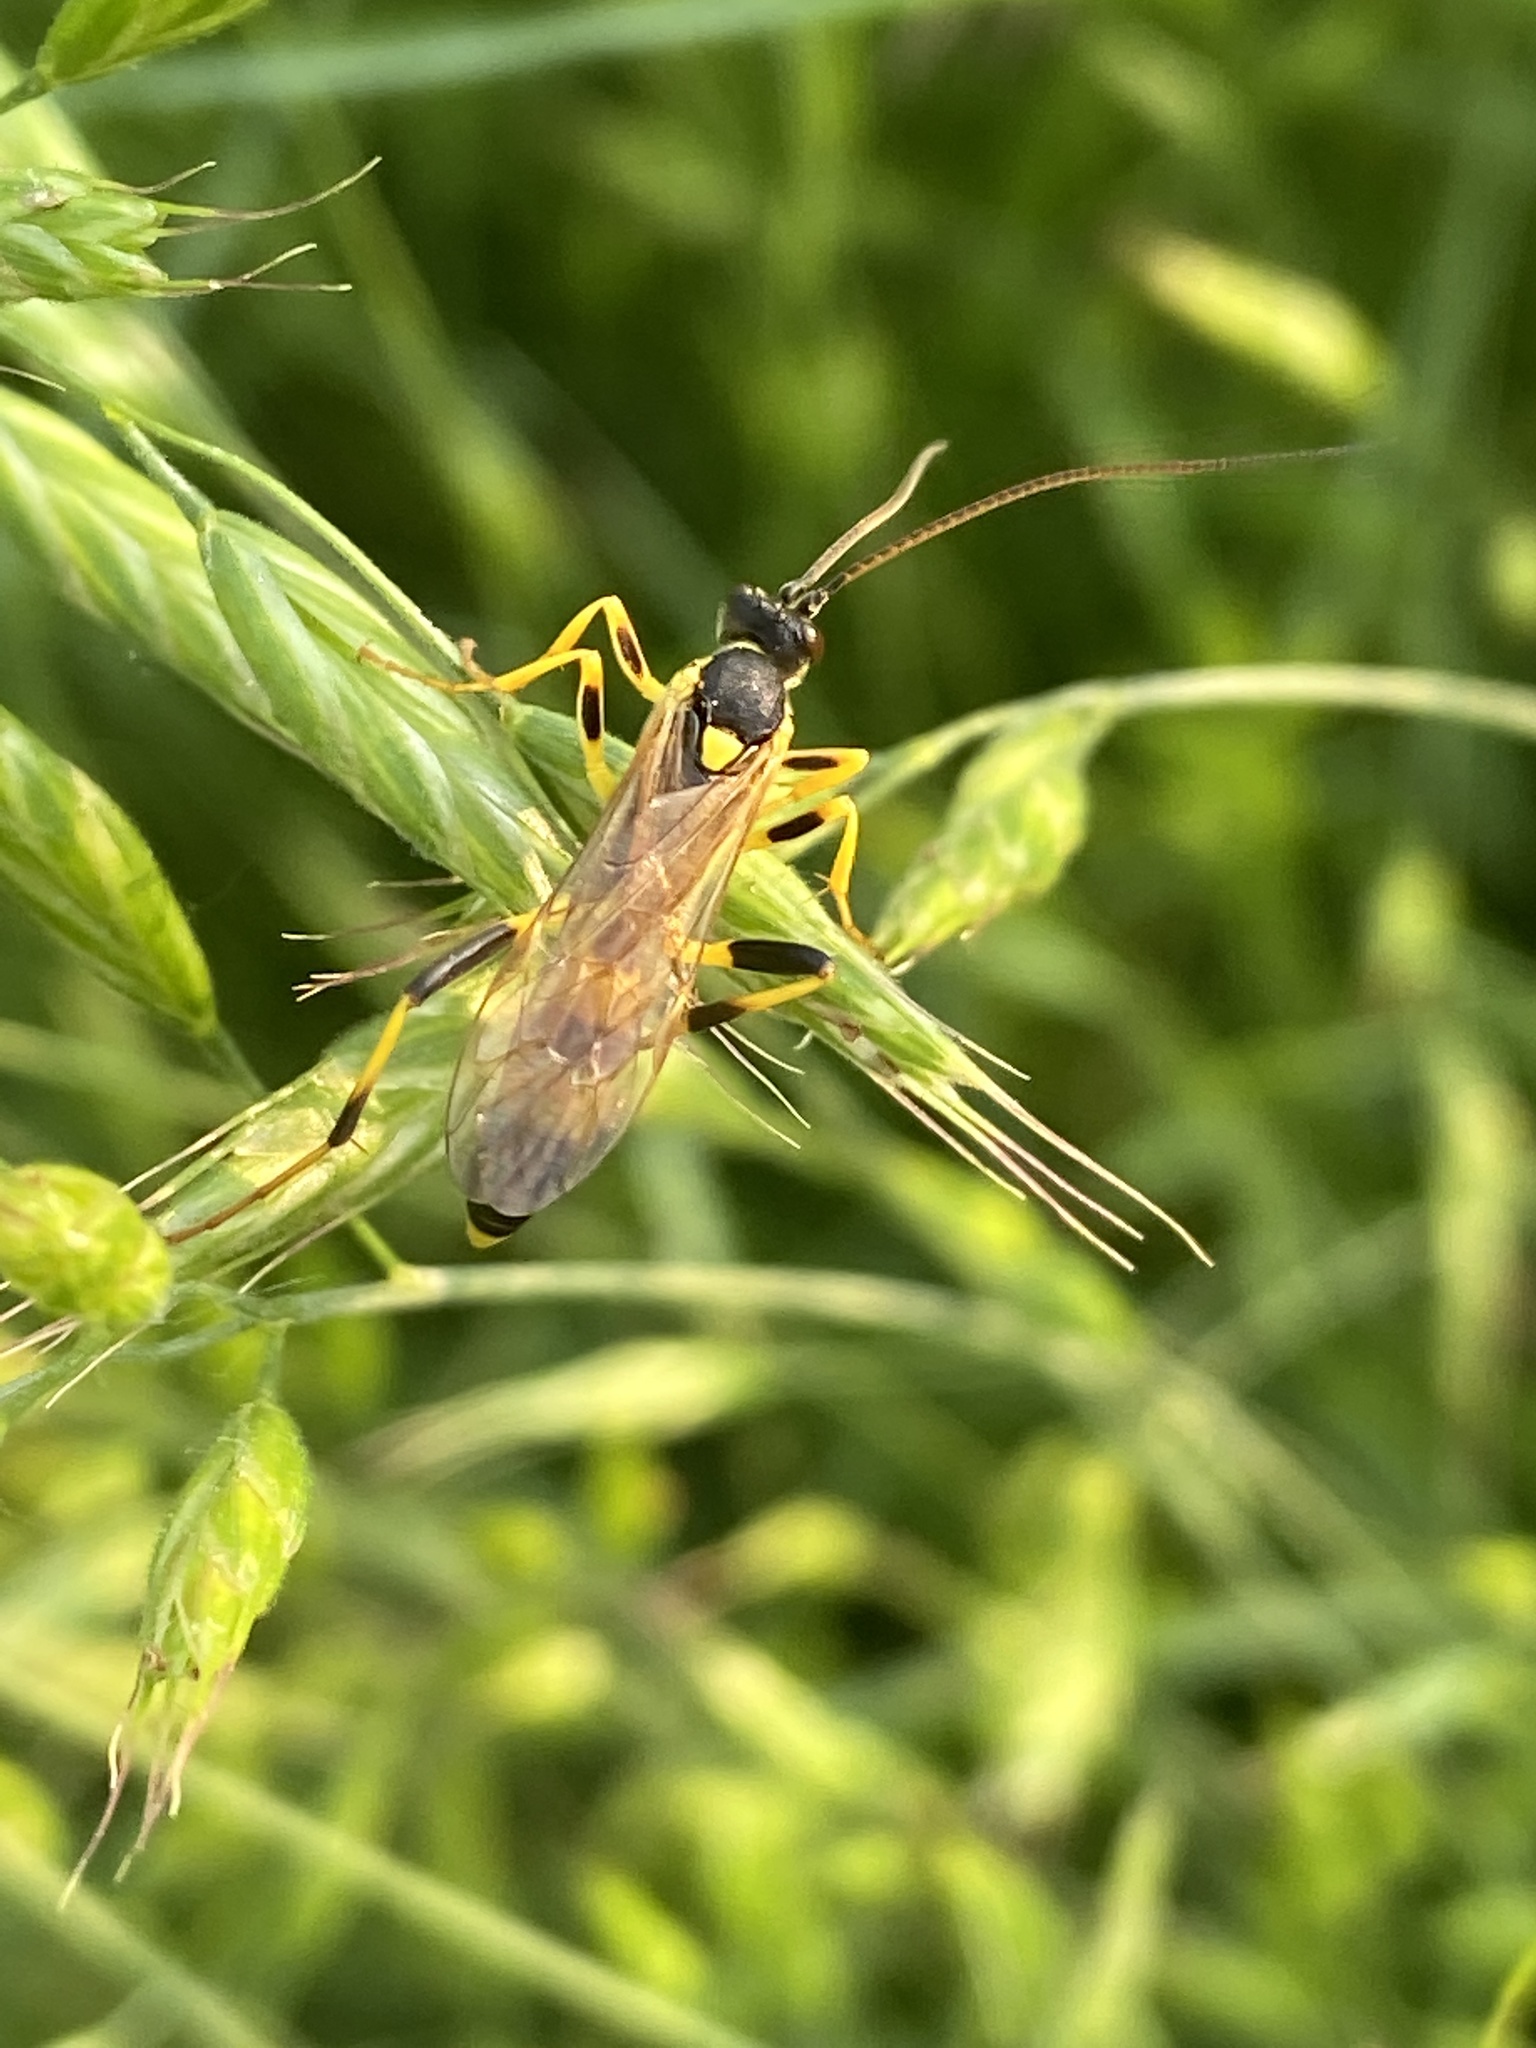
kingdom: Animalia
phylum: Arthropoda
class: Insecta
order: Hymenoptera
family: Ichneumonidae
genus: Amblyteles
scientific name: Amblyteles armatorius
